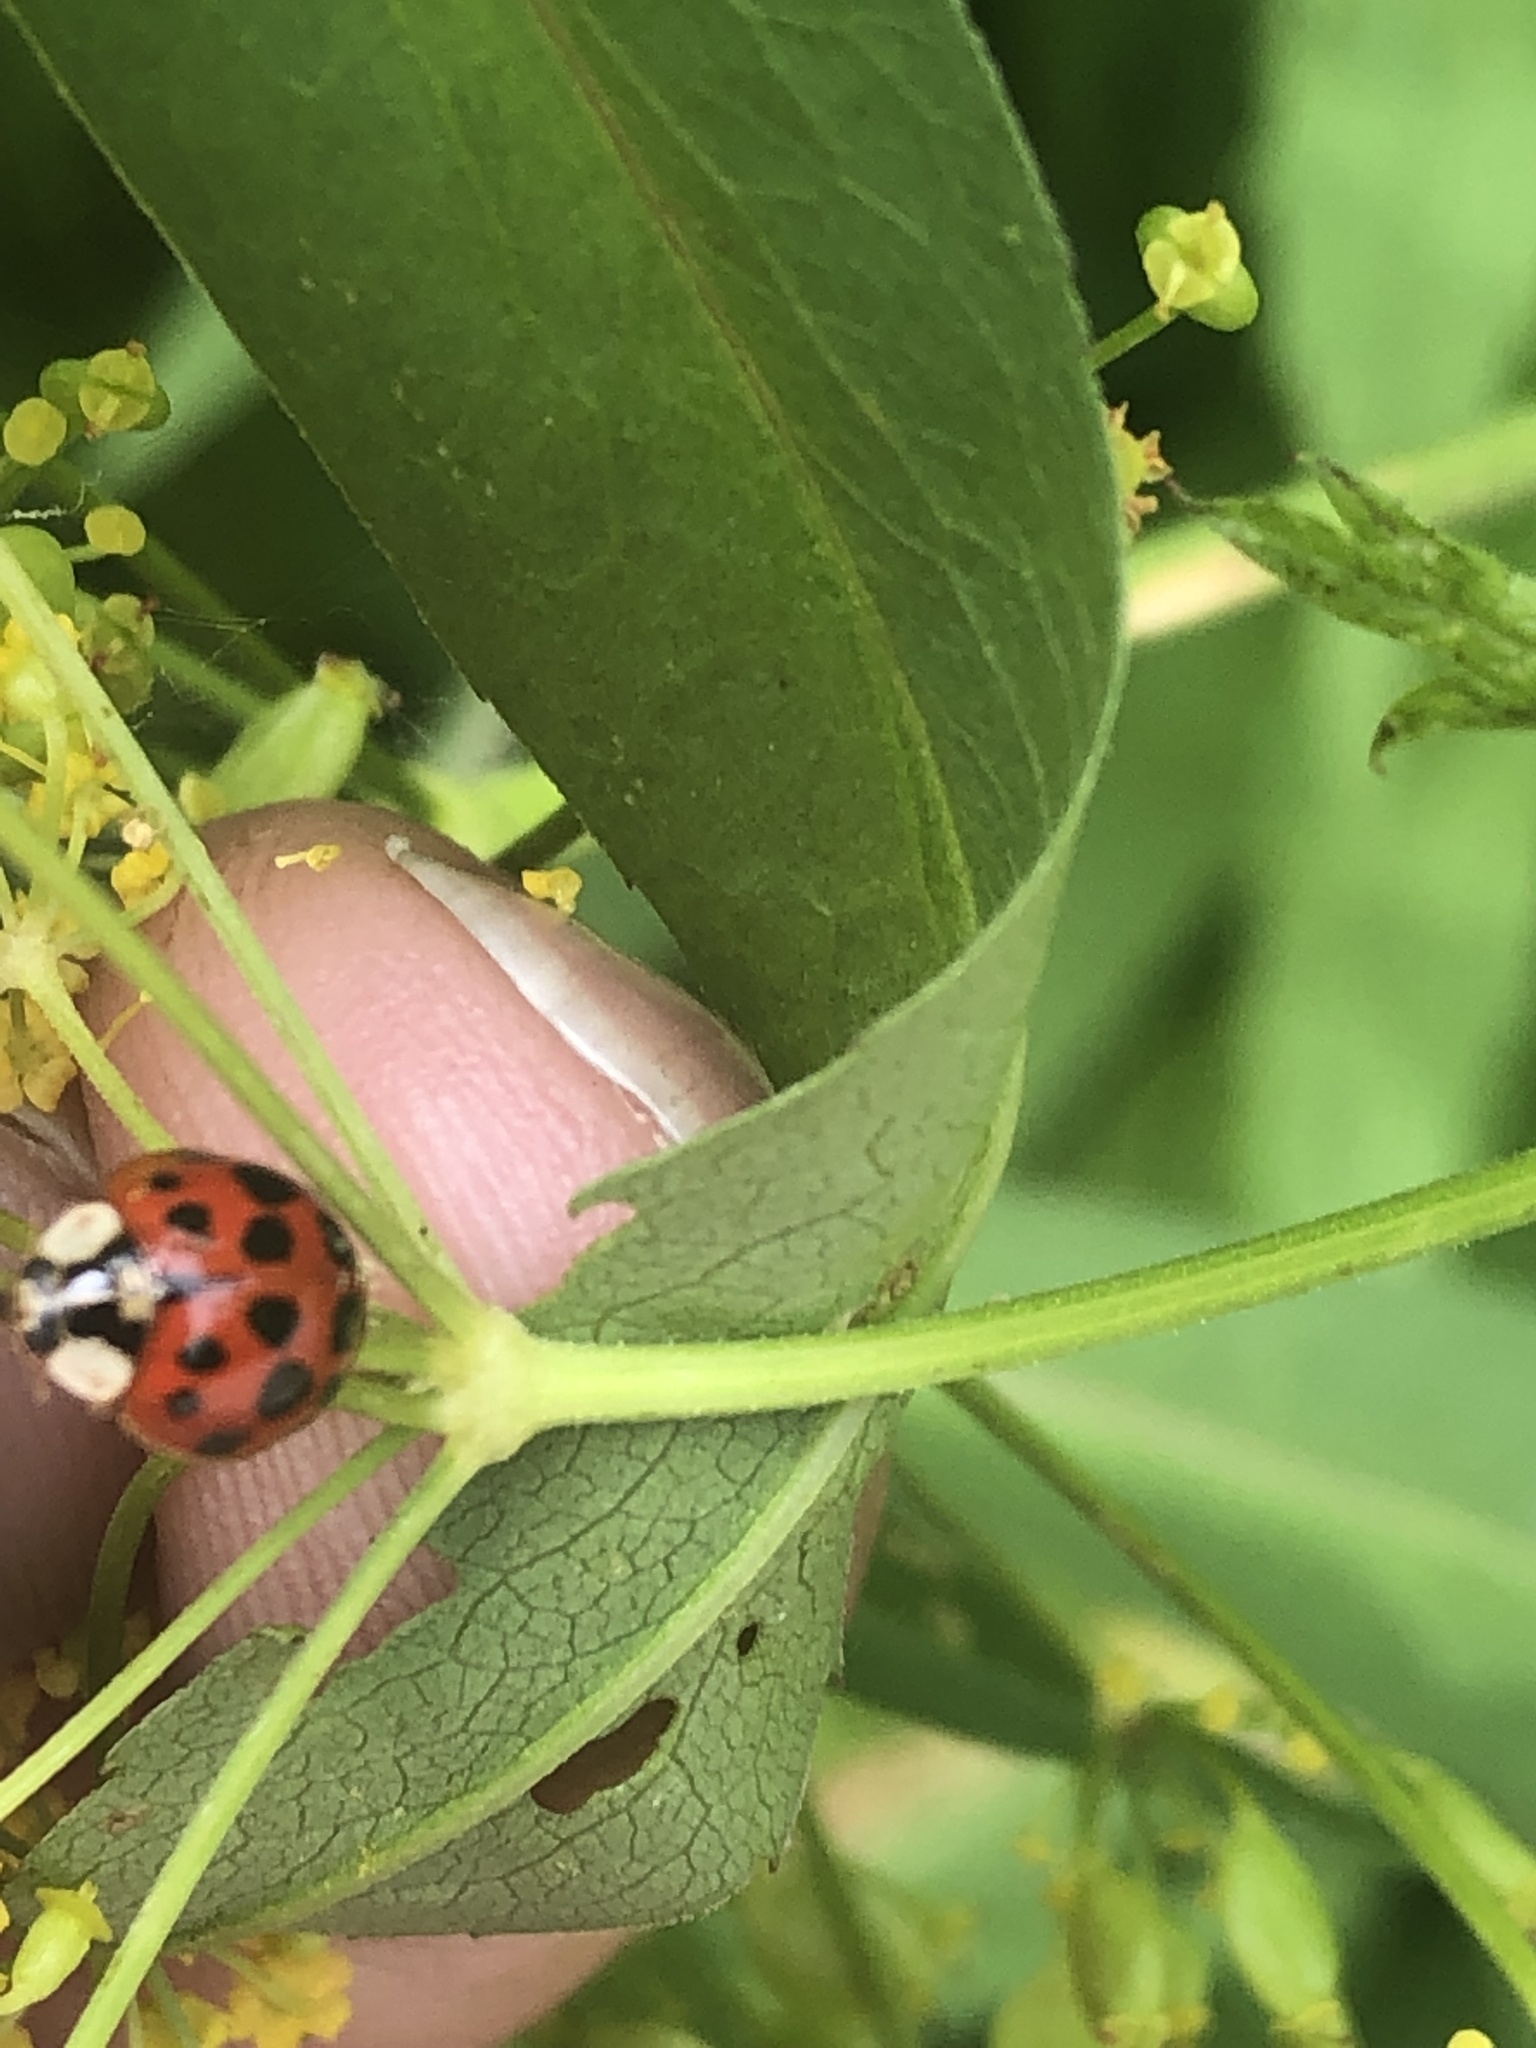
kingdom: Animalia
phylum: Arthropoda
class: Insecta
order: Coleoptera
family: Coccinellidae
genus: Harmonia
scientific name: Harmonia axyridis
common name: Harlequin ladybird
